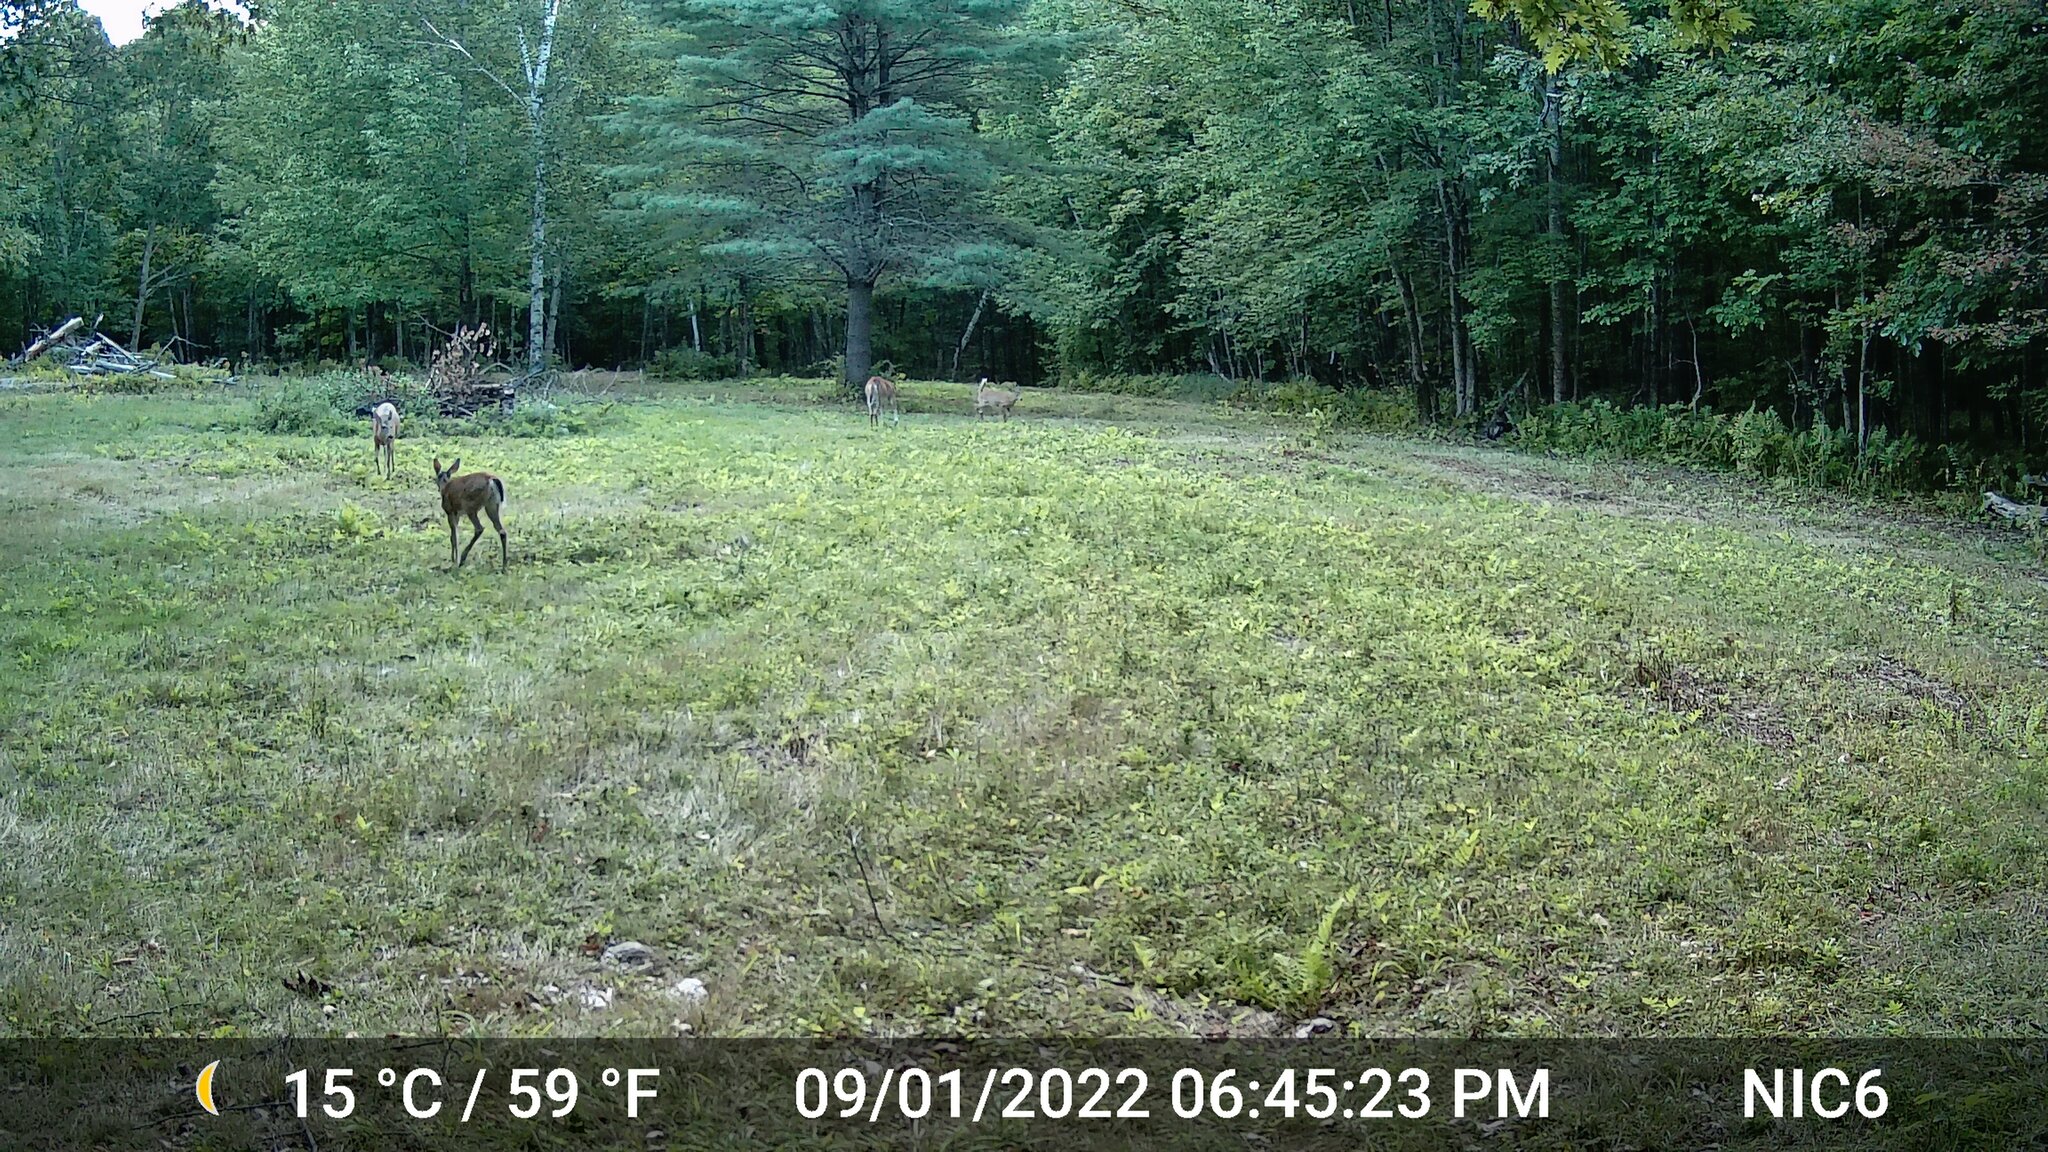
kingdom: Animalia
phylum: Chordata
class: Mammalia
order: Artiodactyla
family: Cervidae
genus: Odocoileus
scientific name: Odocoileus virginianus
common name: White-tailed deer
